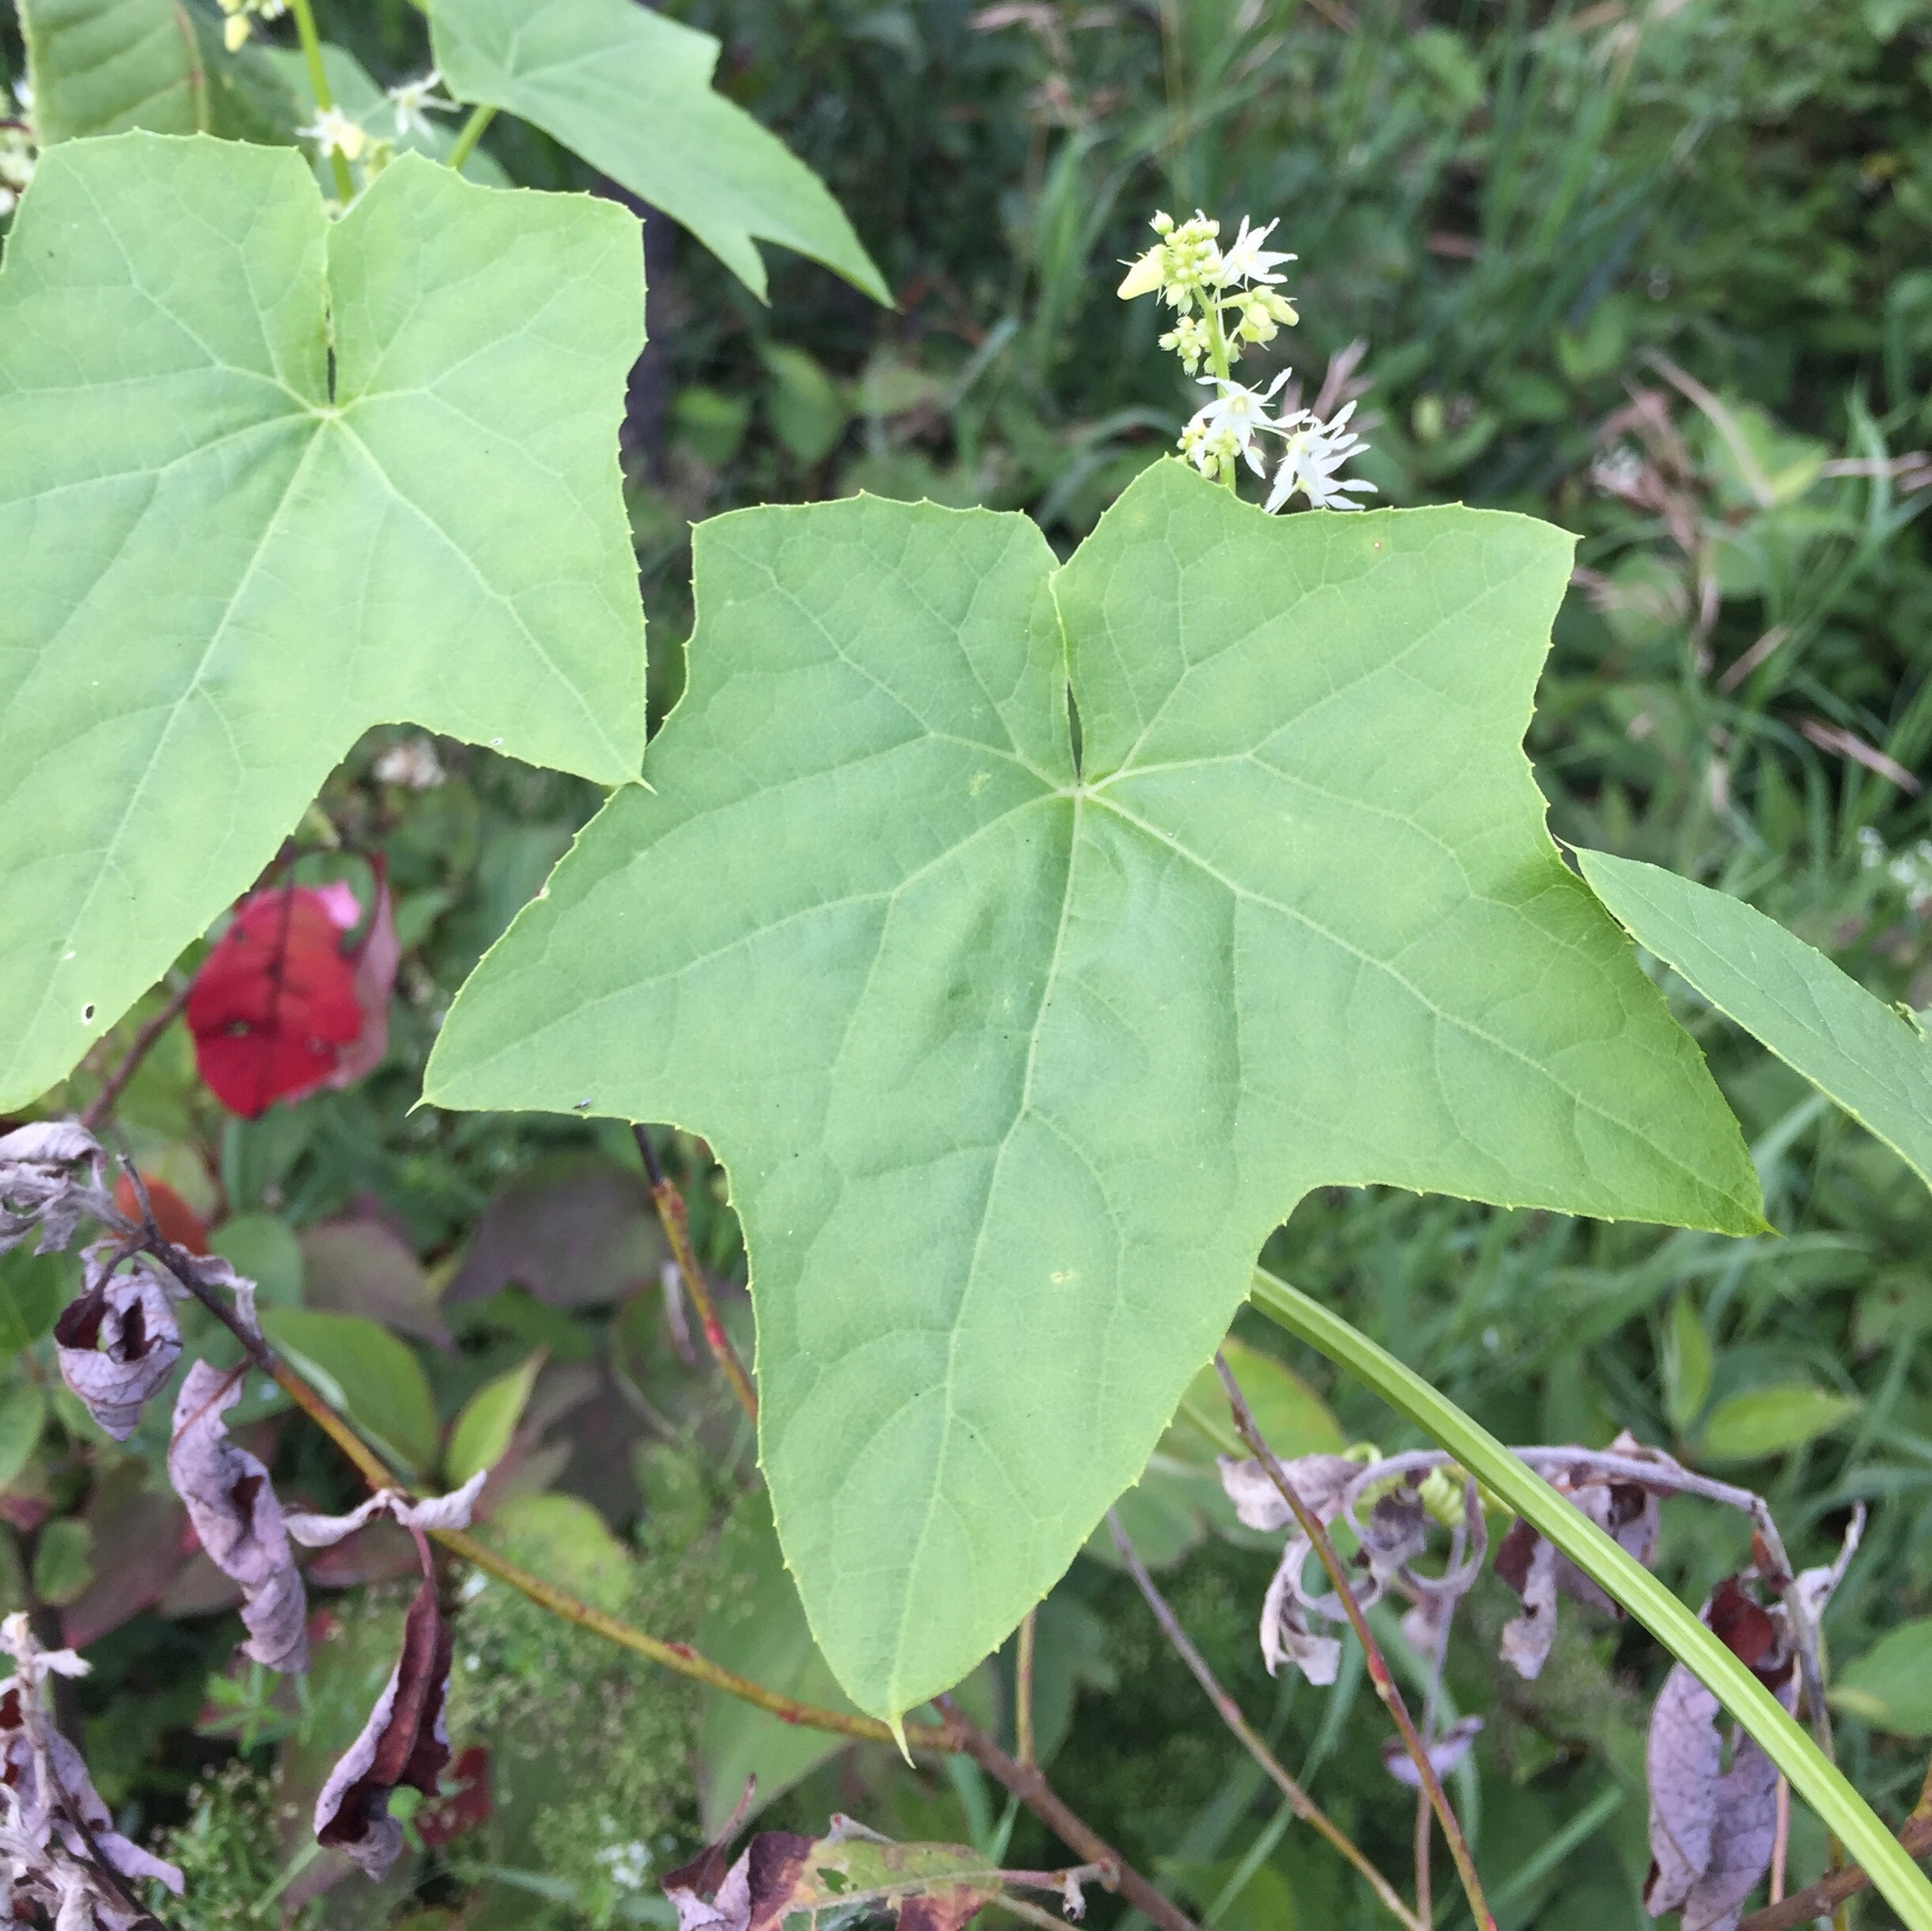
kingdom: Plantae
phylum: Tracheophyta
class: Magnoliopsida
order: Cucurbitales
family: Cucurbitaceae
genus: Echinocystis
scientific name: Echinocystis lobata
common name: Wild cucumber
